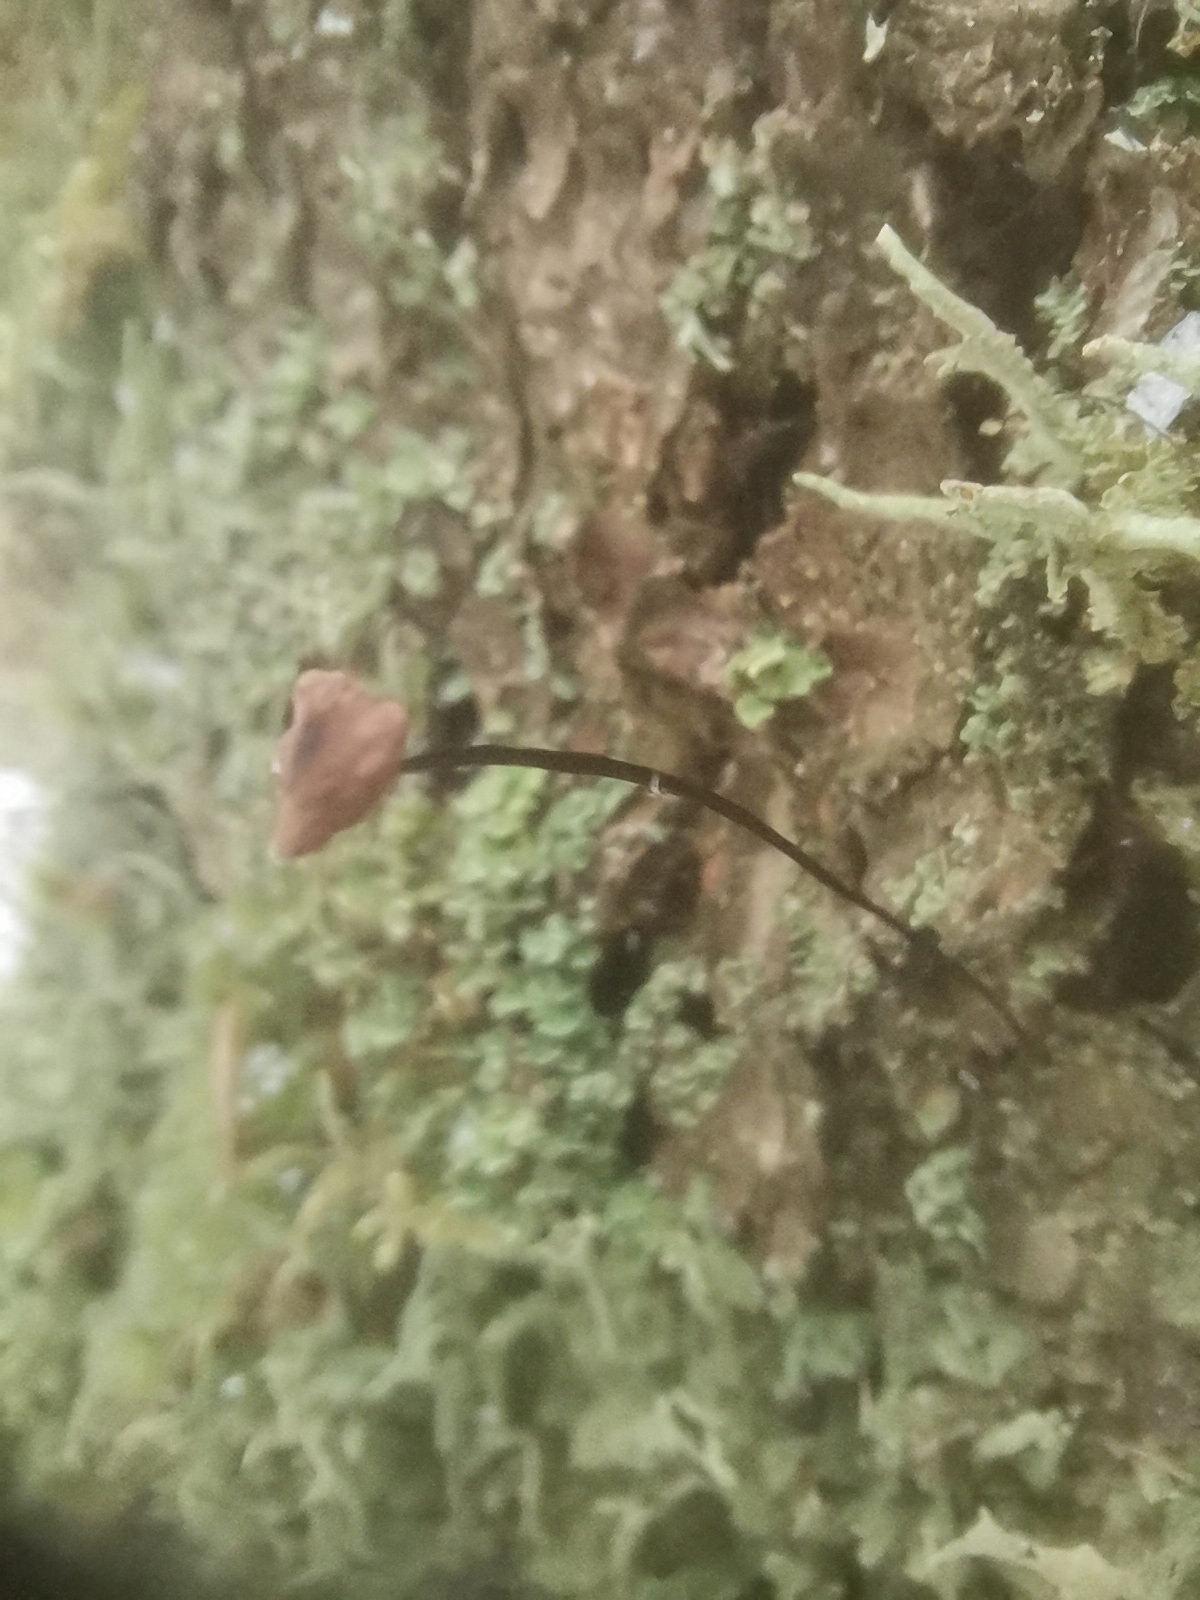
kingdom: Fungi
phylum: Basidiomycota
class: Agaricomycetes
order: Agaricales
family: Omphalotaceae
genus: Gymnopus
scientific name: Gymnopus androsaceus
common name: Horse-hair fungus
